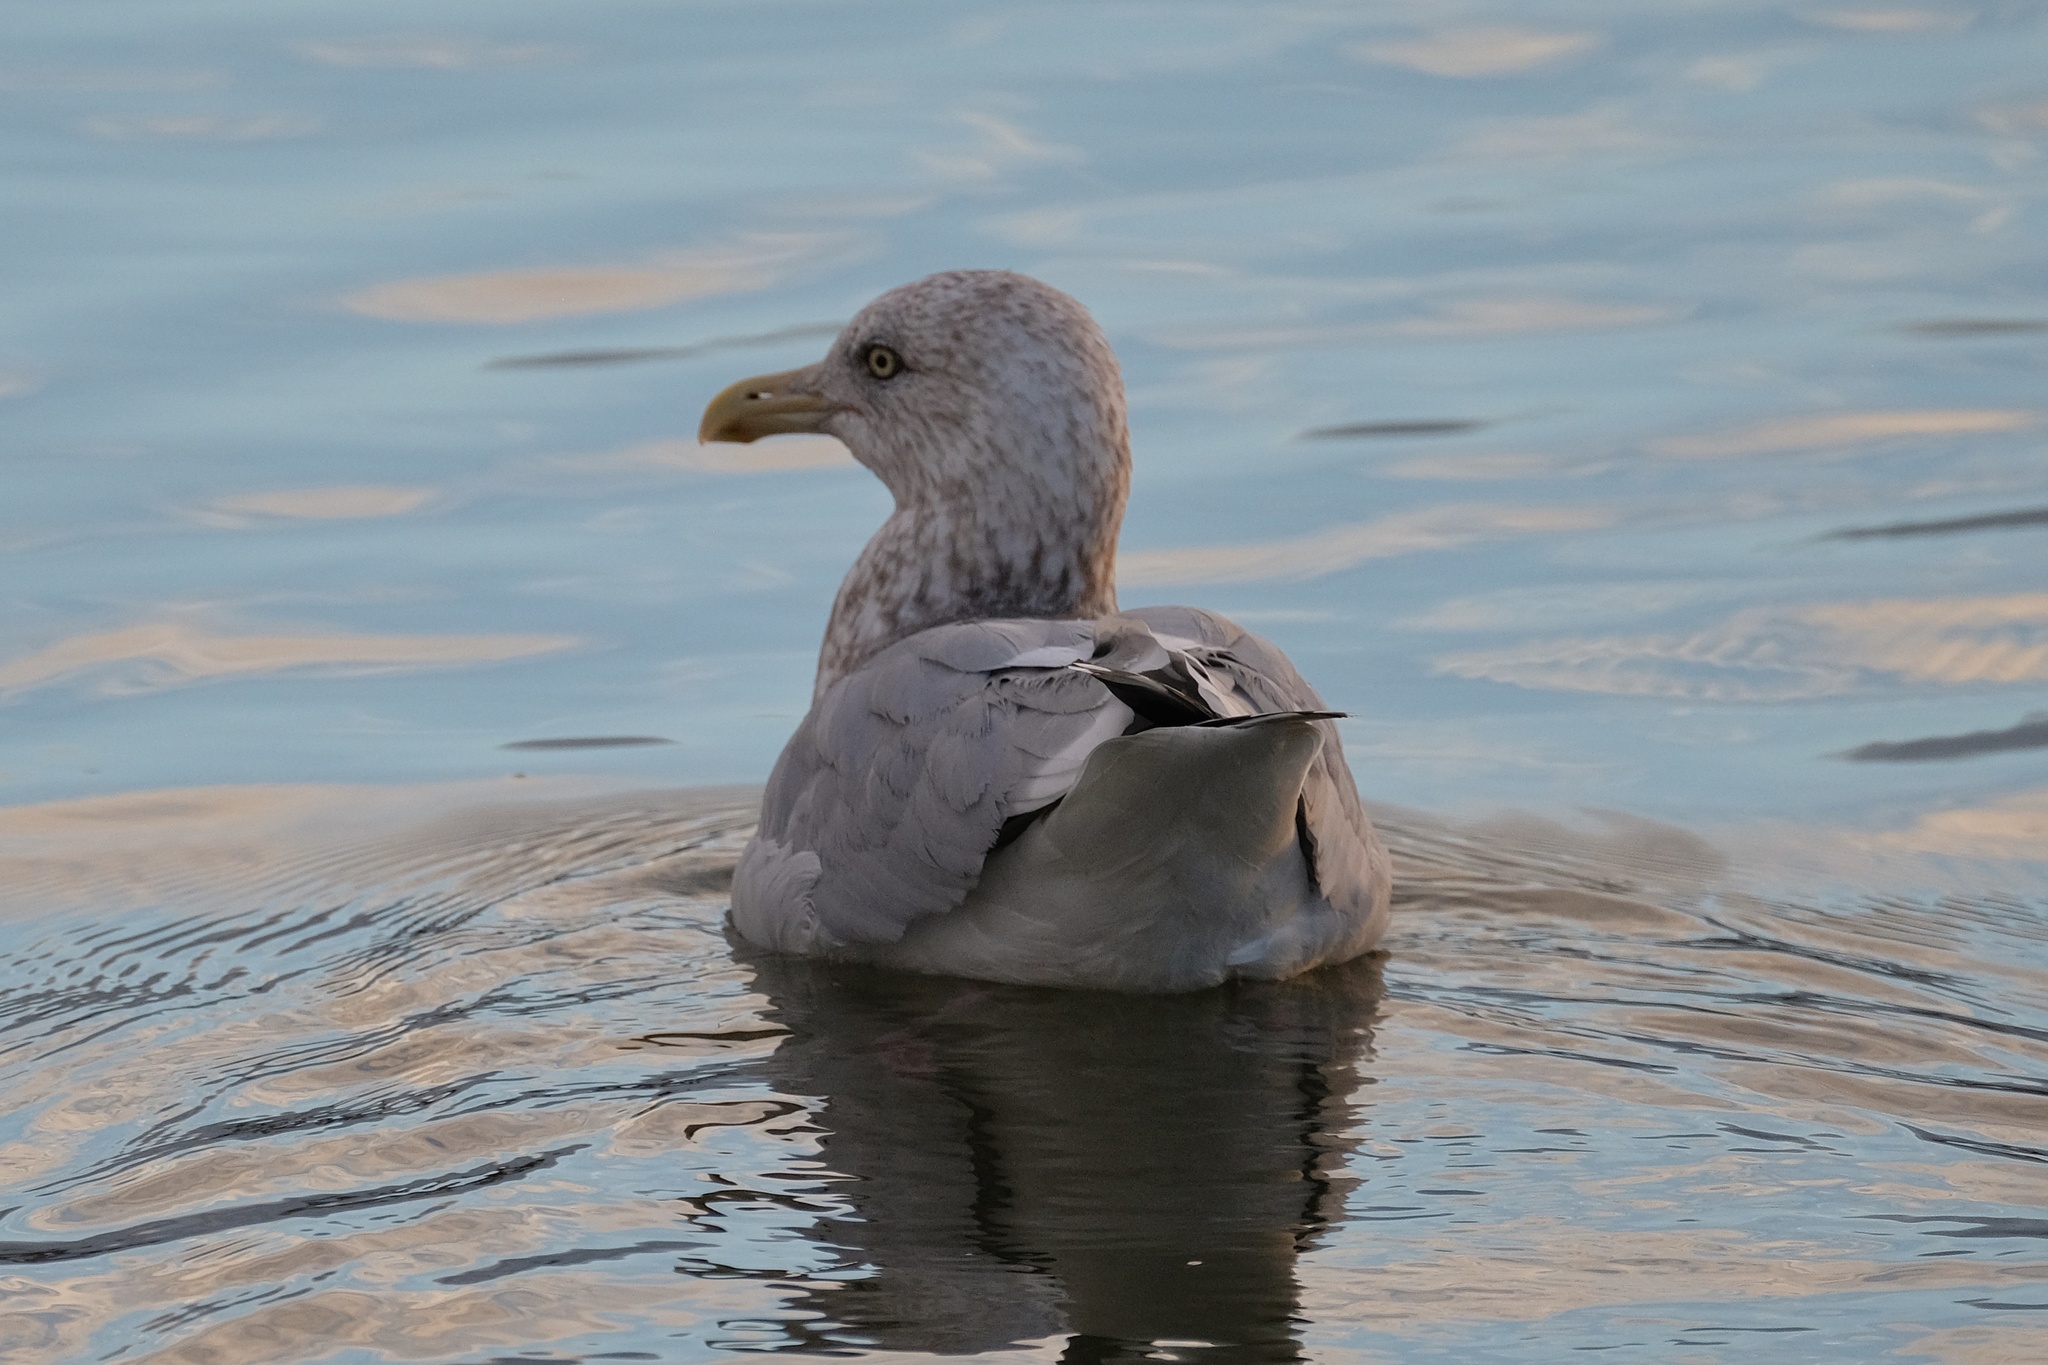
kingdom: Animalia
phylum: Chordata
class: Aves
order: Charadriiformes
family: Laridae
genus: Larus
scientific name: Larus argentatus
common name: Herring gull
